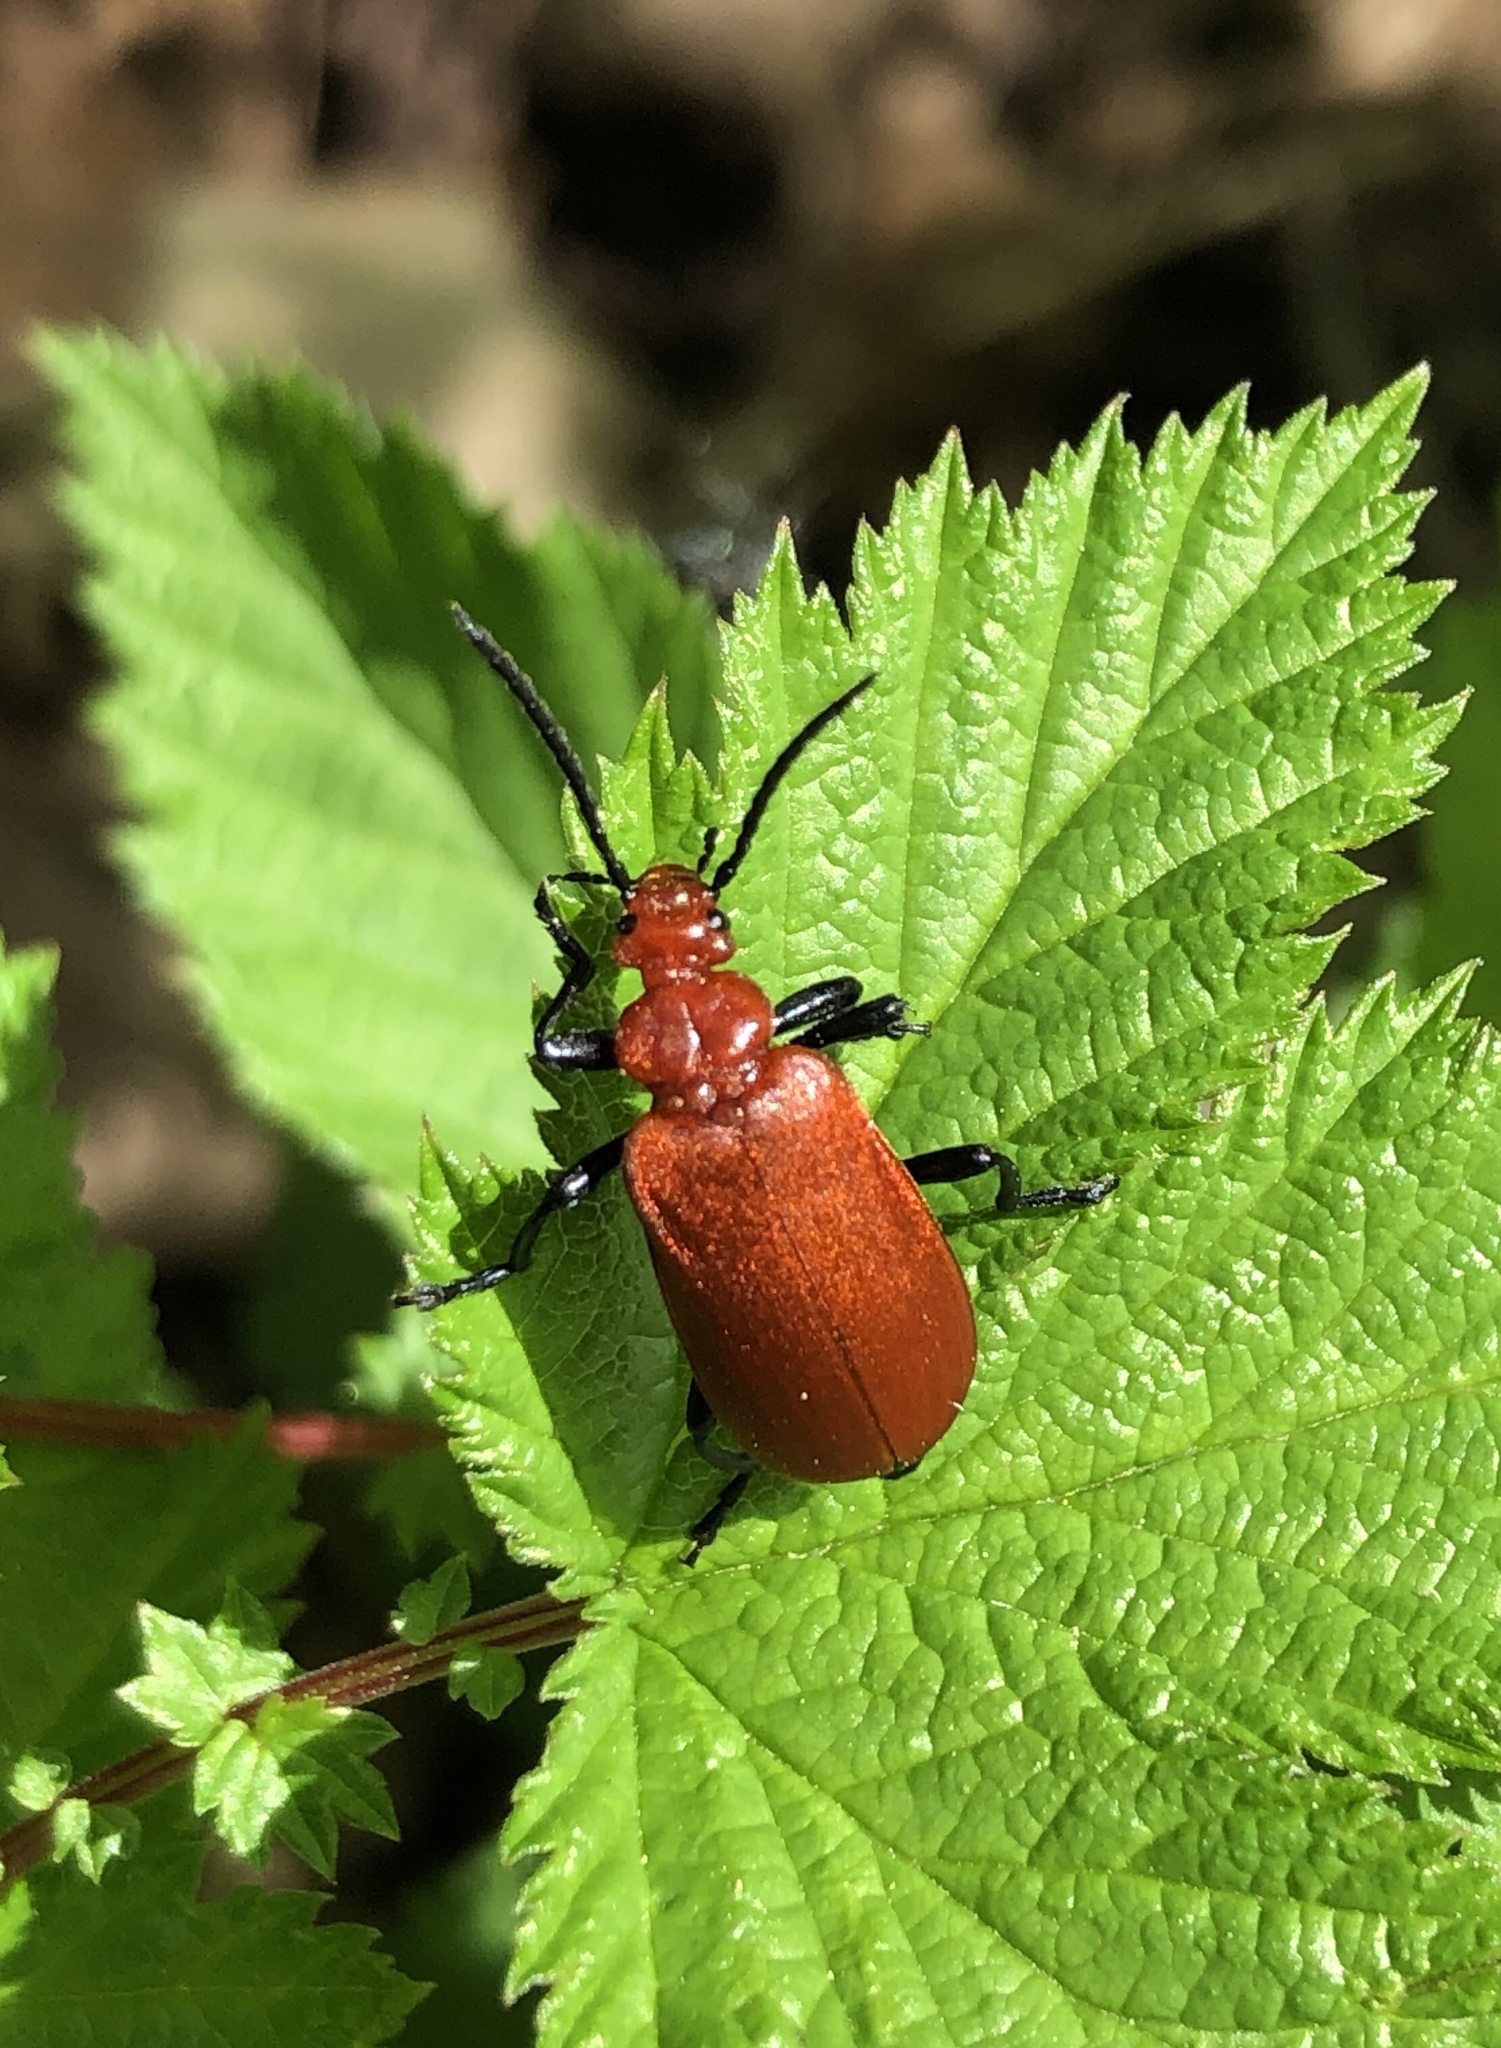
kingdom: Animalia
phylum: Arthropoda
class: Insecta
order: Coleoptera
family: Pyrochroidae
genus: Pyrochroa
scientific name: Pyrochroa serraticornis
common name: Red-headed cardinal beetle
